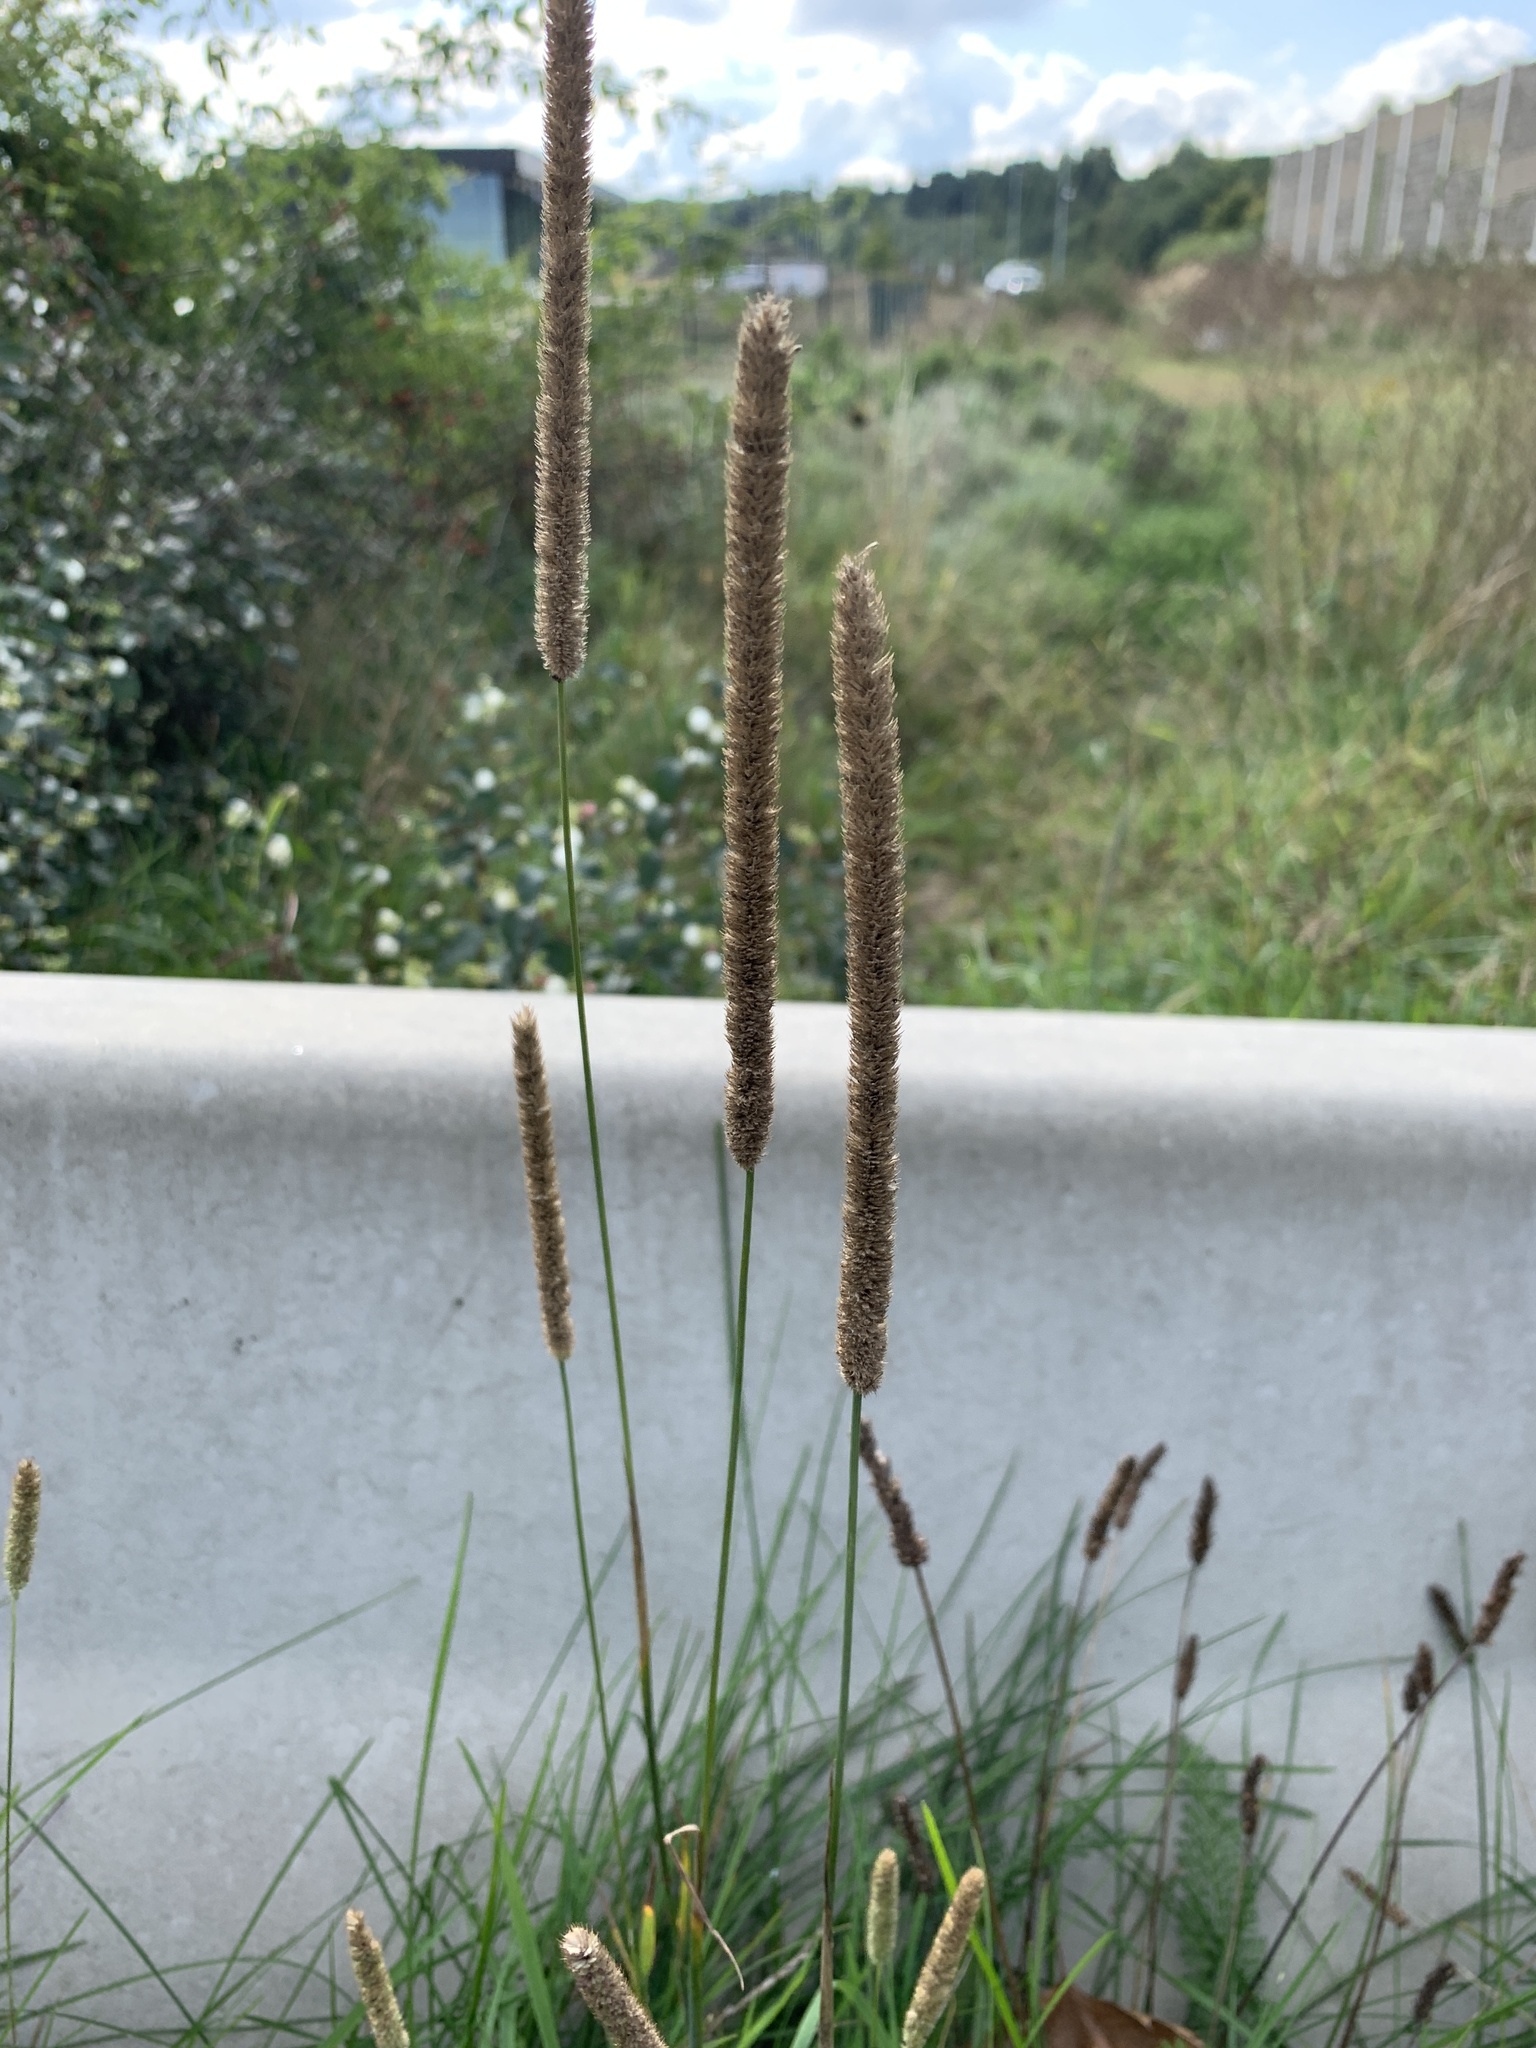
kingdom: Plantae
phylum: Tracheophyta
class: Liliopsida
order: Poales
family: Poaceae
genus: Phleum
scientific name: Phleum pratense
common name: Timothy grass
